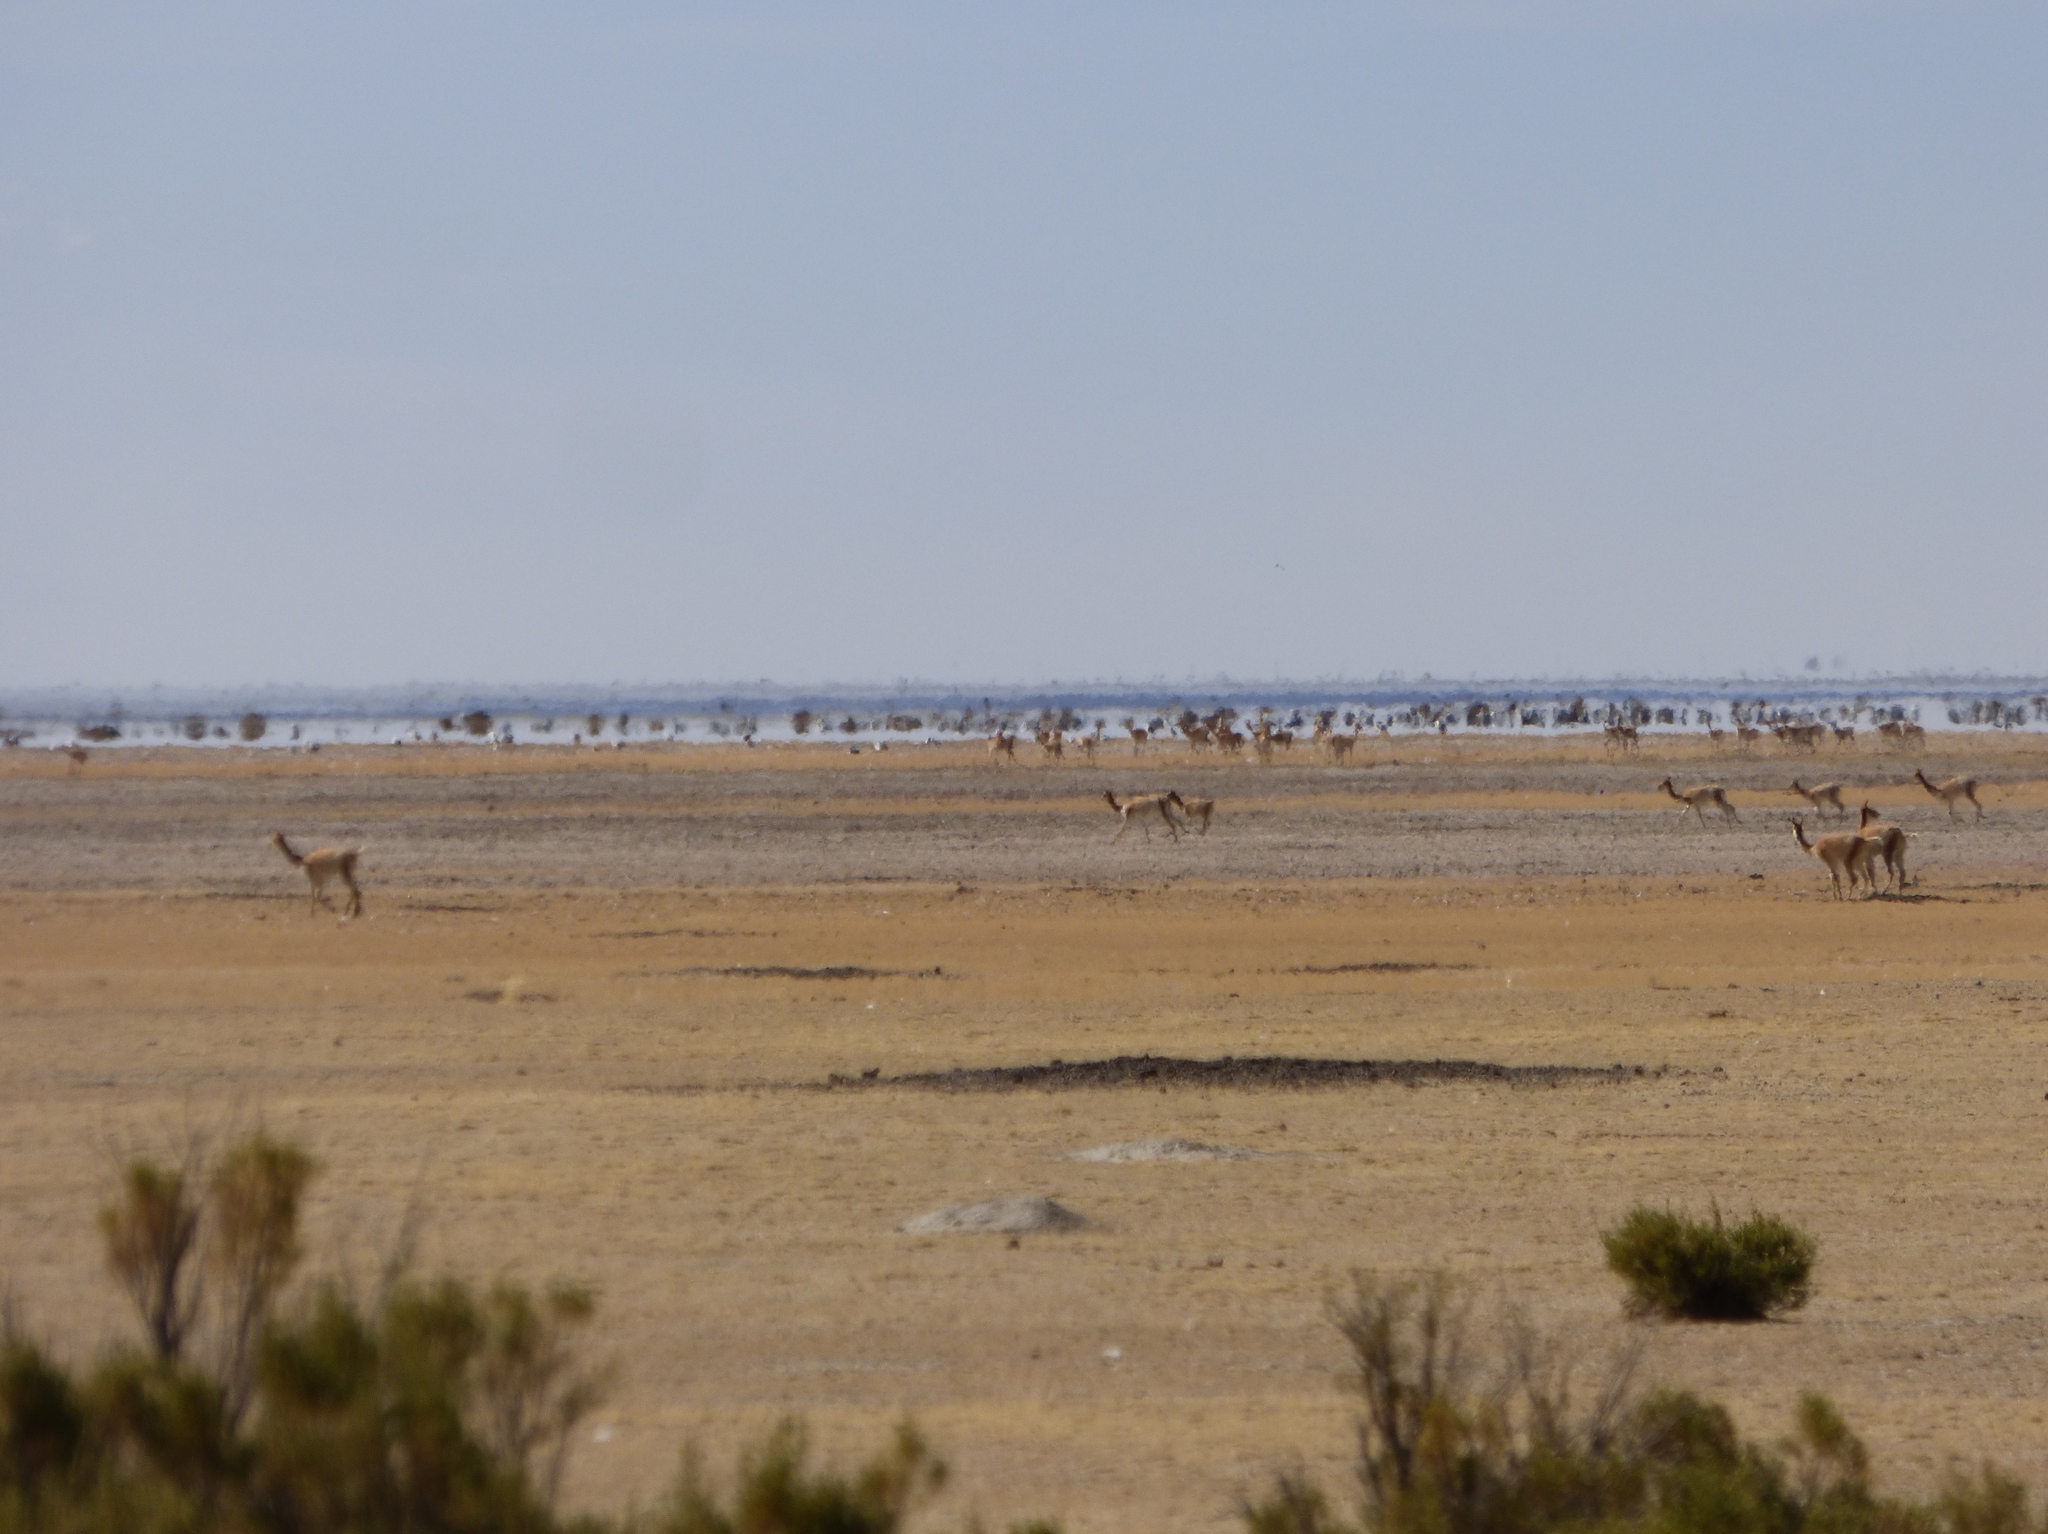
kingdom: Animalia
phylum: Chordata
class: Mammalia
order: Artiodactyla
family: Camelidae
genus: Vicugna
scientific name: Vicugna vicugna
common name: Vicugna
